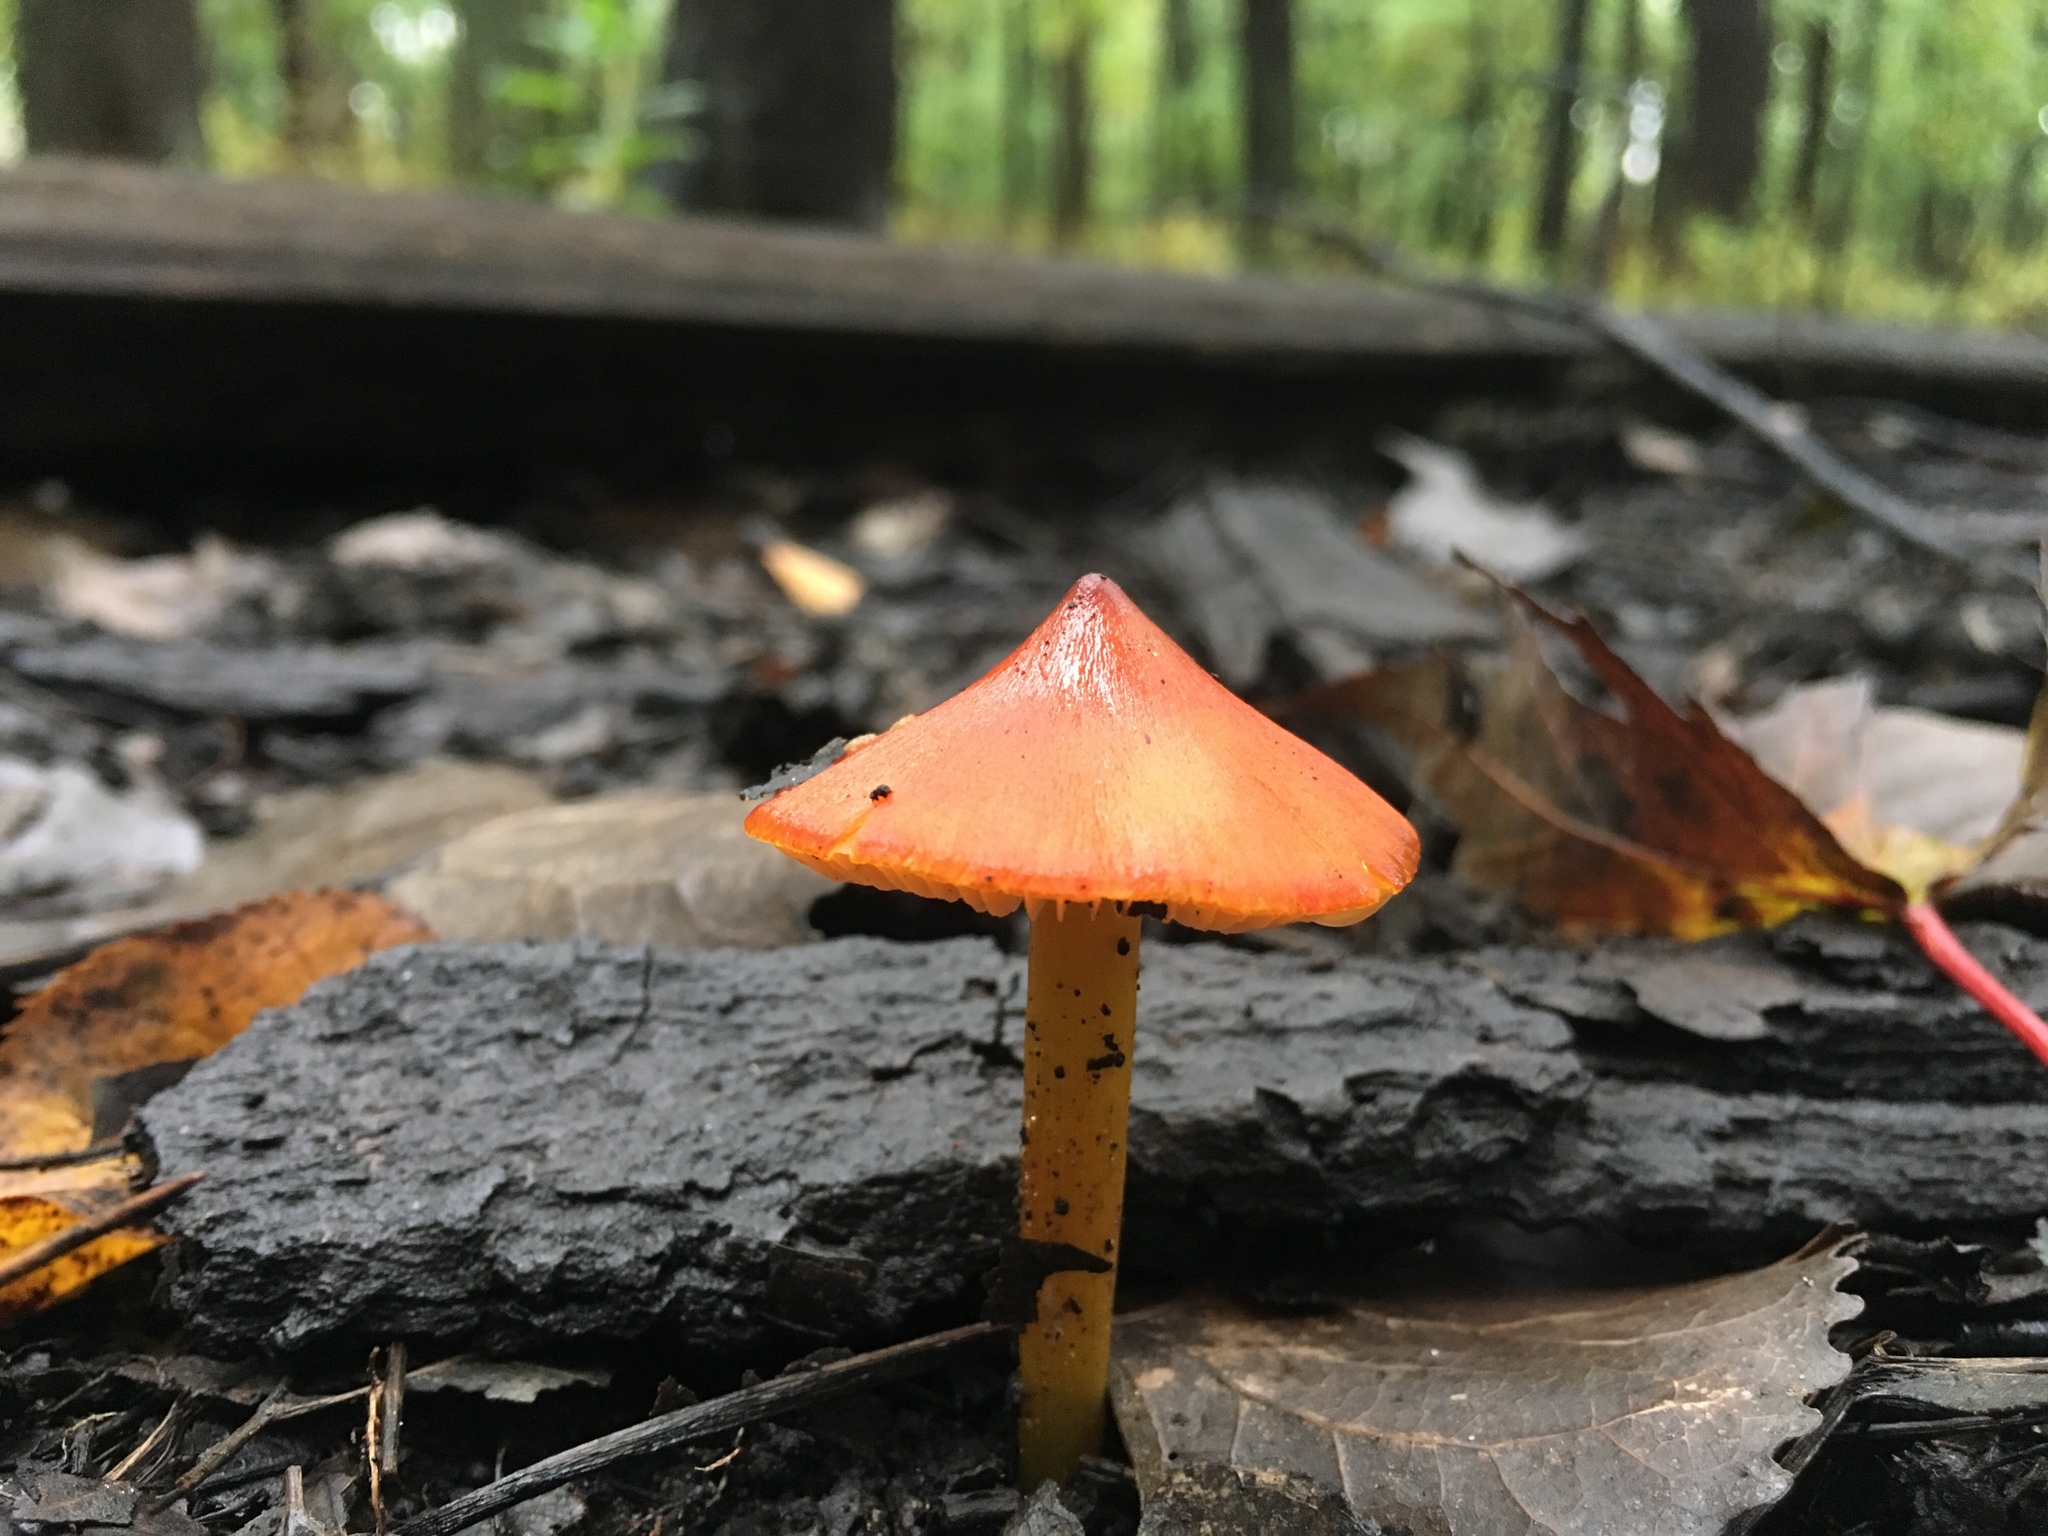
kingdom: Fungi
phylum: Basidiomycota
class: Agaricomycetes
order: Agaricales
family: Hygrophoraceae
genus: Hygrocybe
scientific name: Hygrocybe conica
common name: Blackening wax-cap
